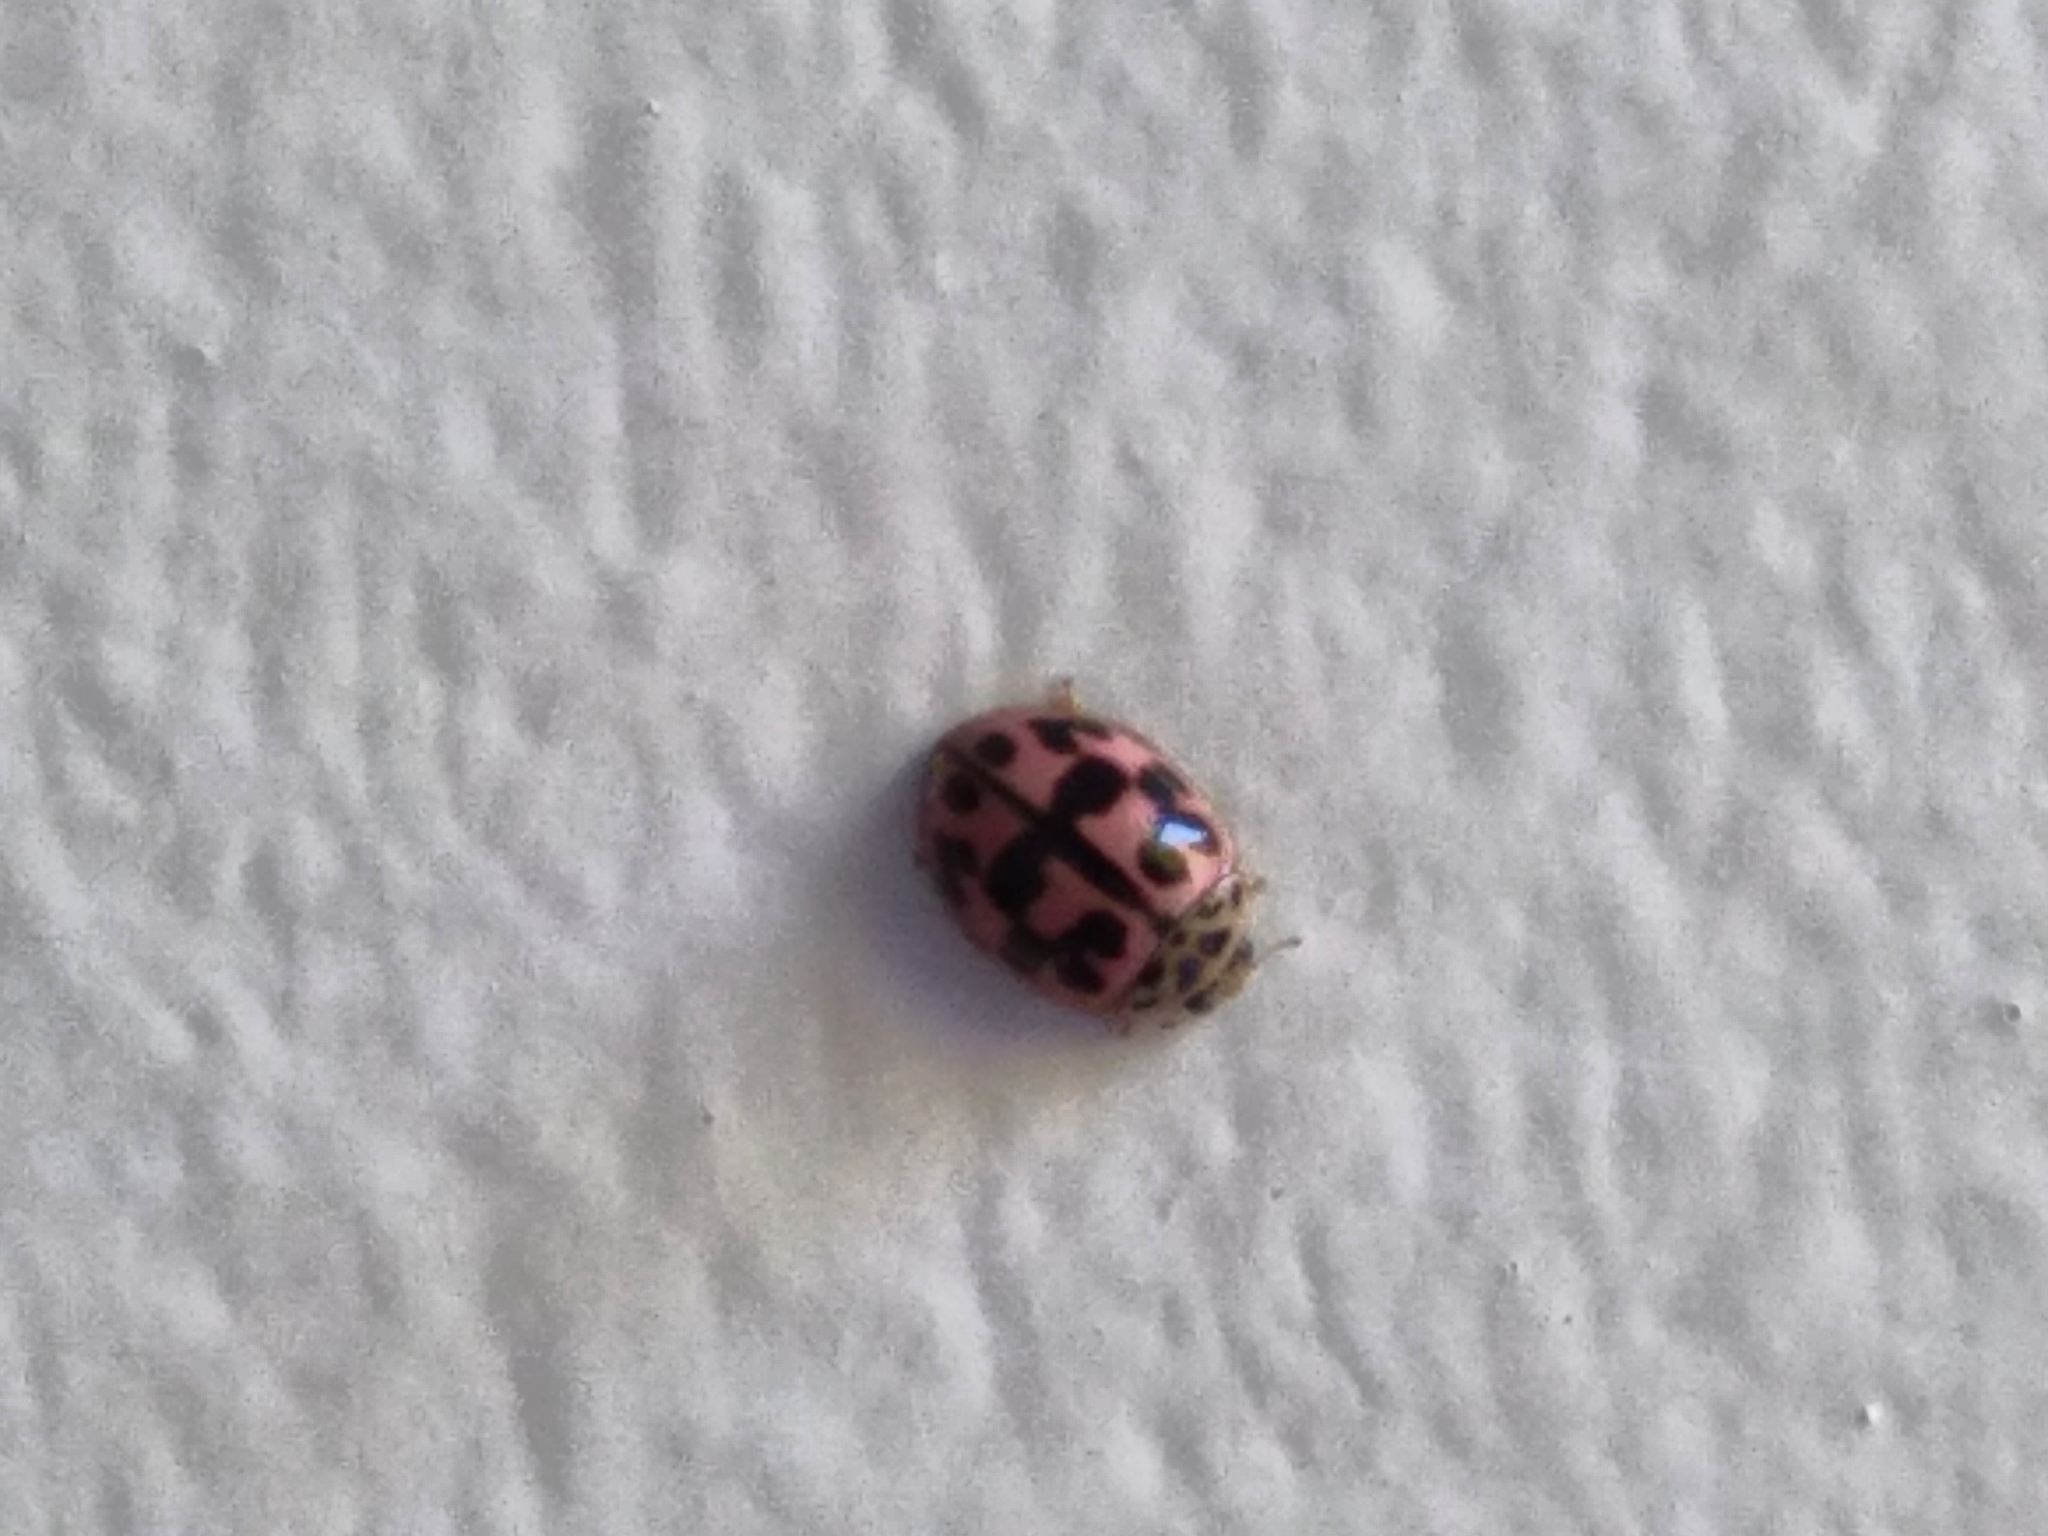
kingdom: Animalia
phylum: Arthropoda
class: Insecta
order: Coleoptera
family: Coccinellidae
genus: Oenopia
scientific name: Oenopia conglobata
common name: Ladybird beetle
